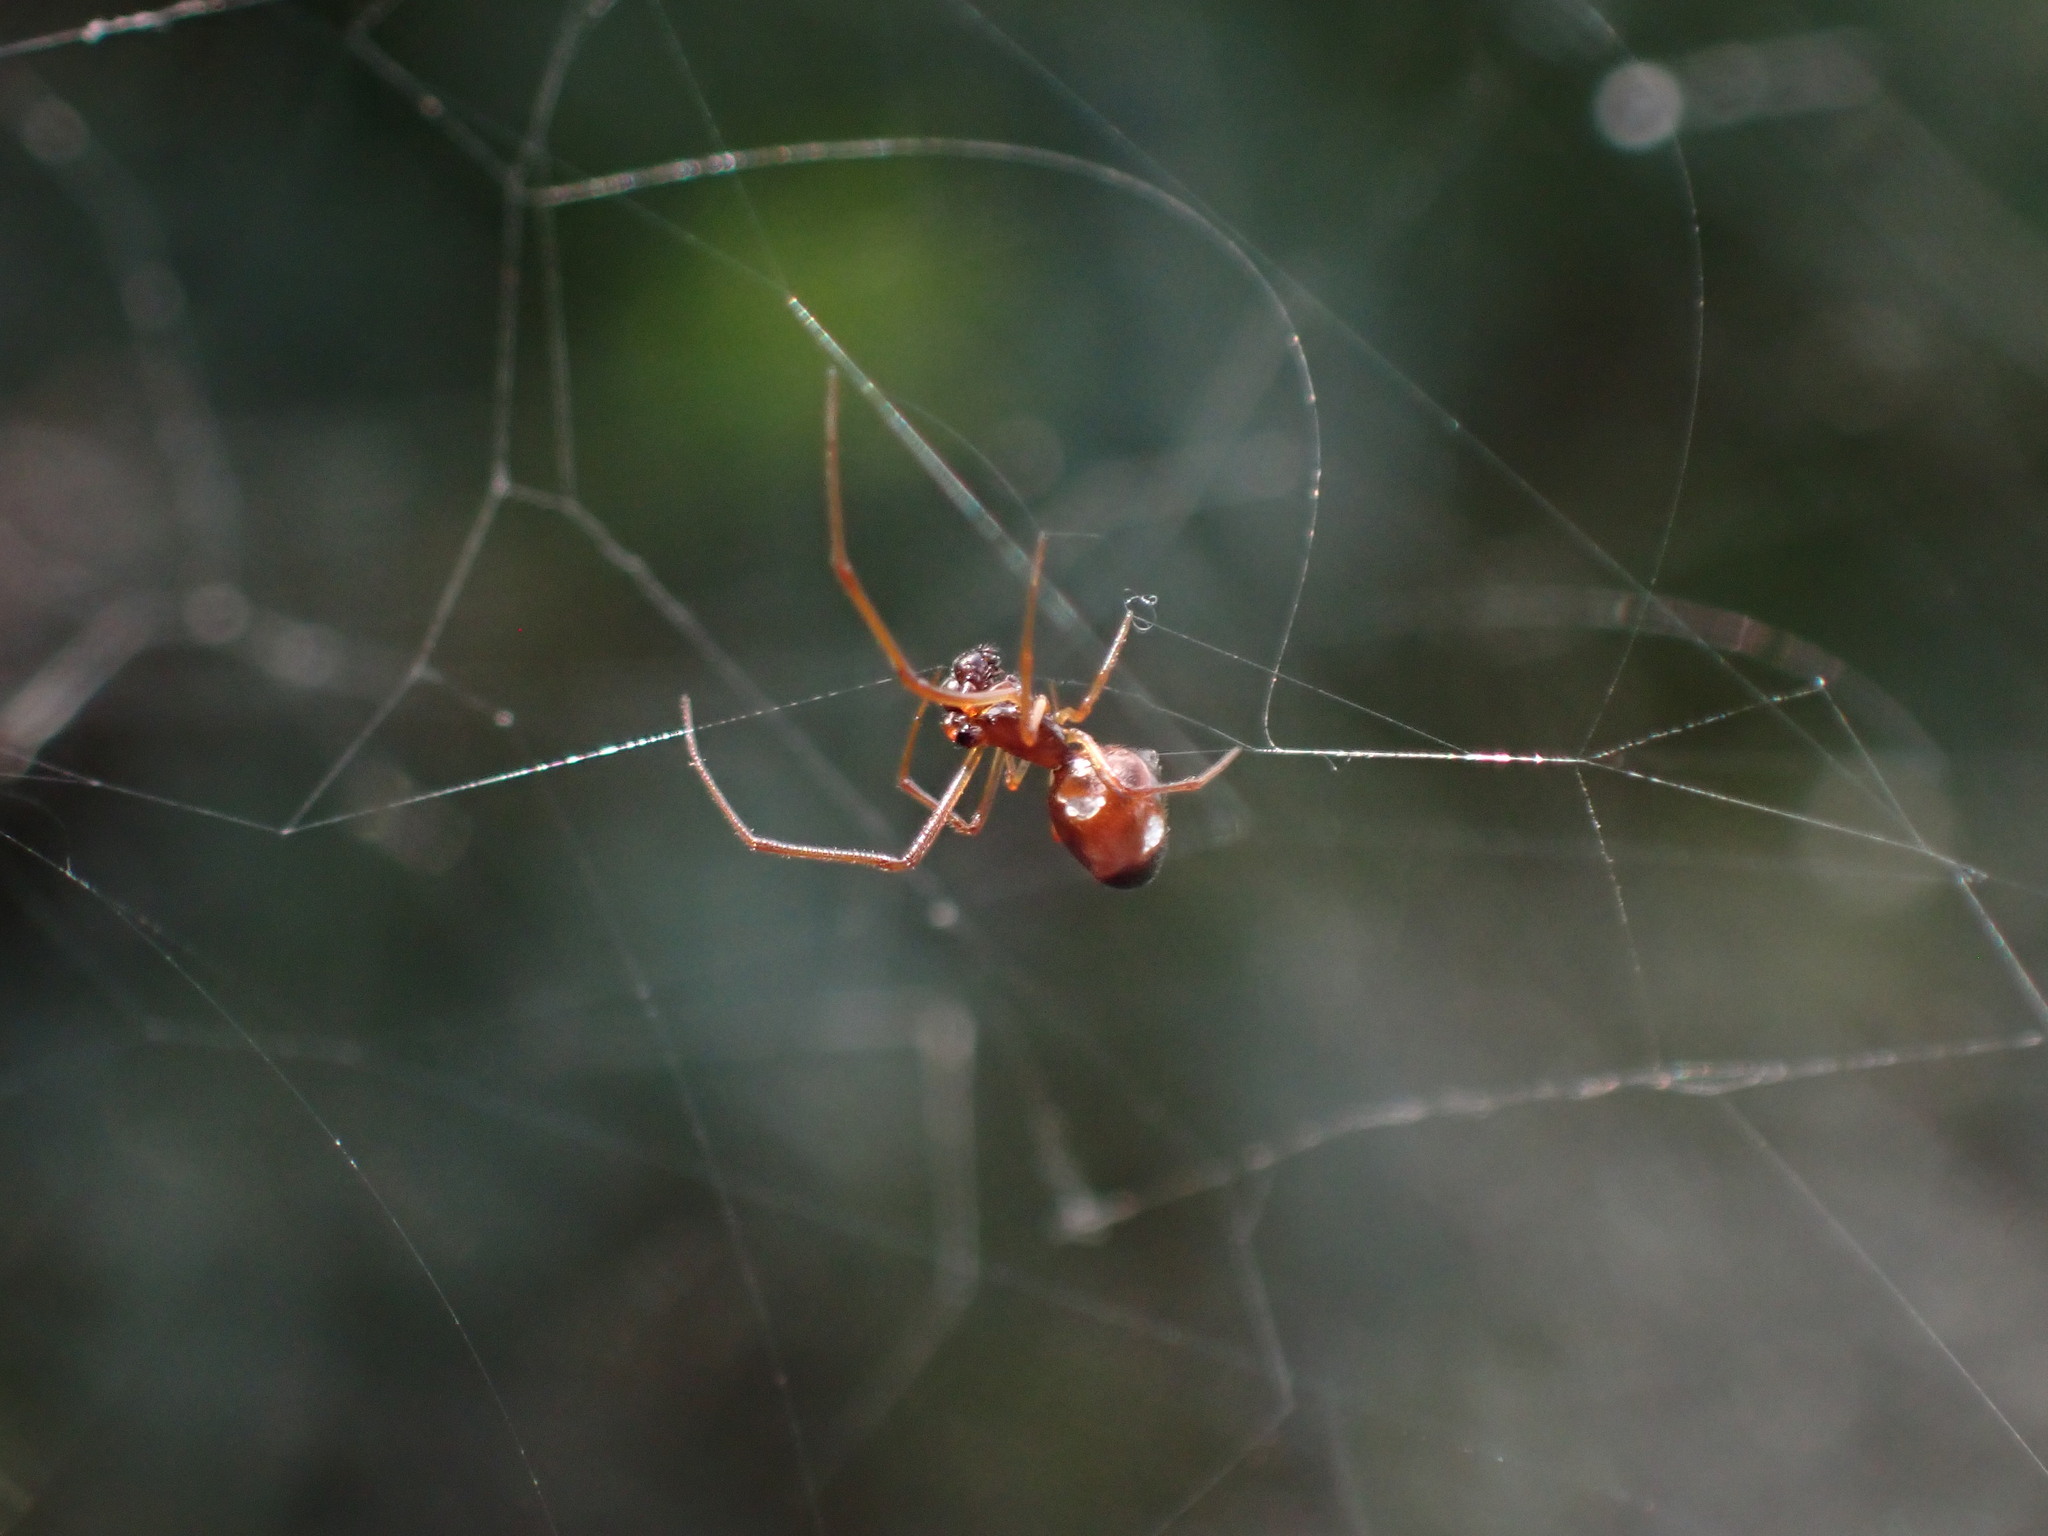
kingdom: Animalia
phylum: Arthropoda
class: Arachnida
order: Araneae
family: Theridiidae
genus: Argyrodes
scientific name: Argyrodes argyrodes
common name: Dewdrop spider
